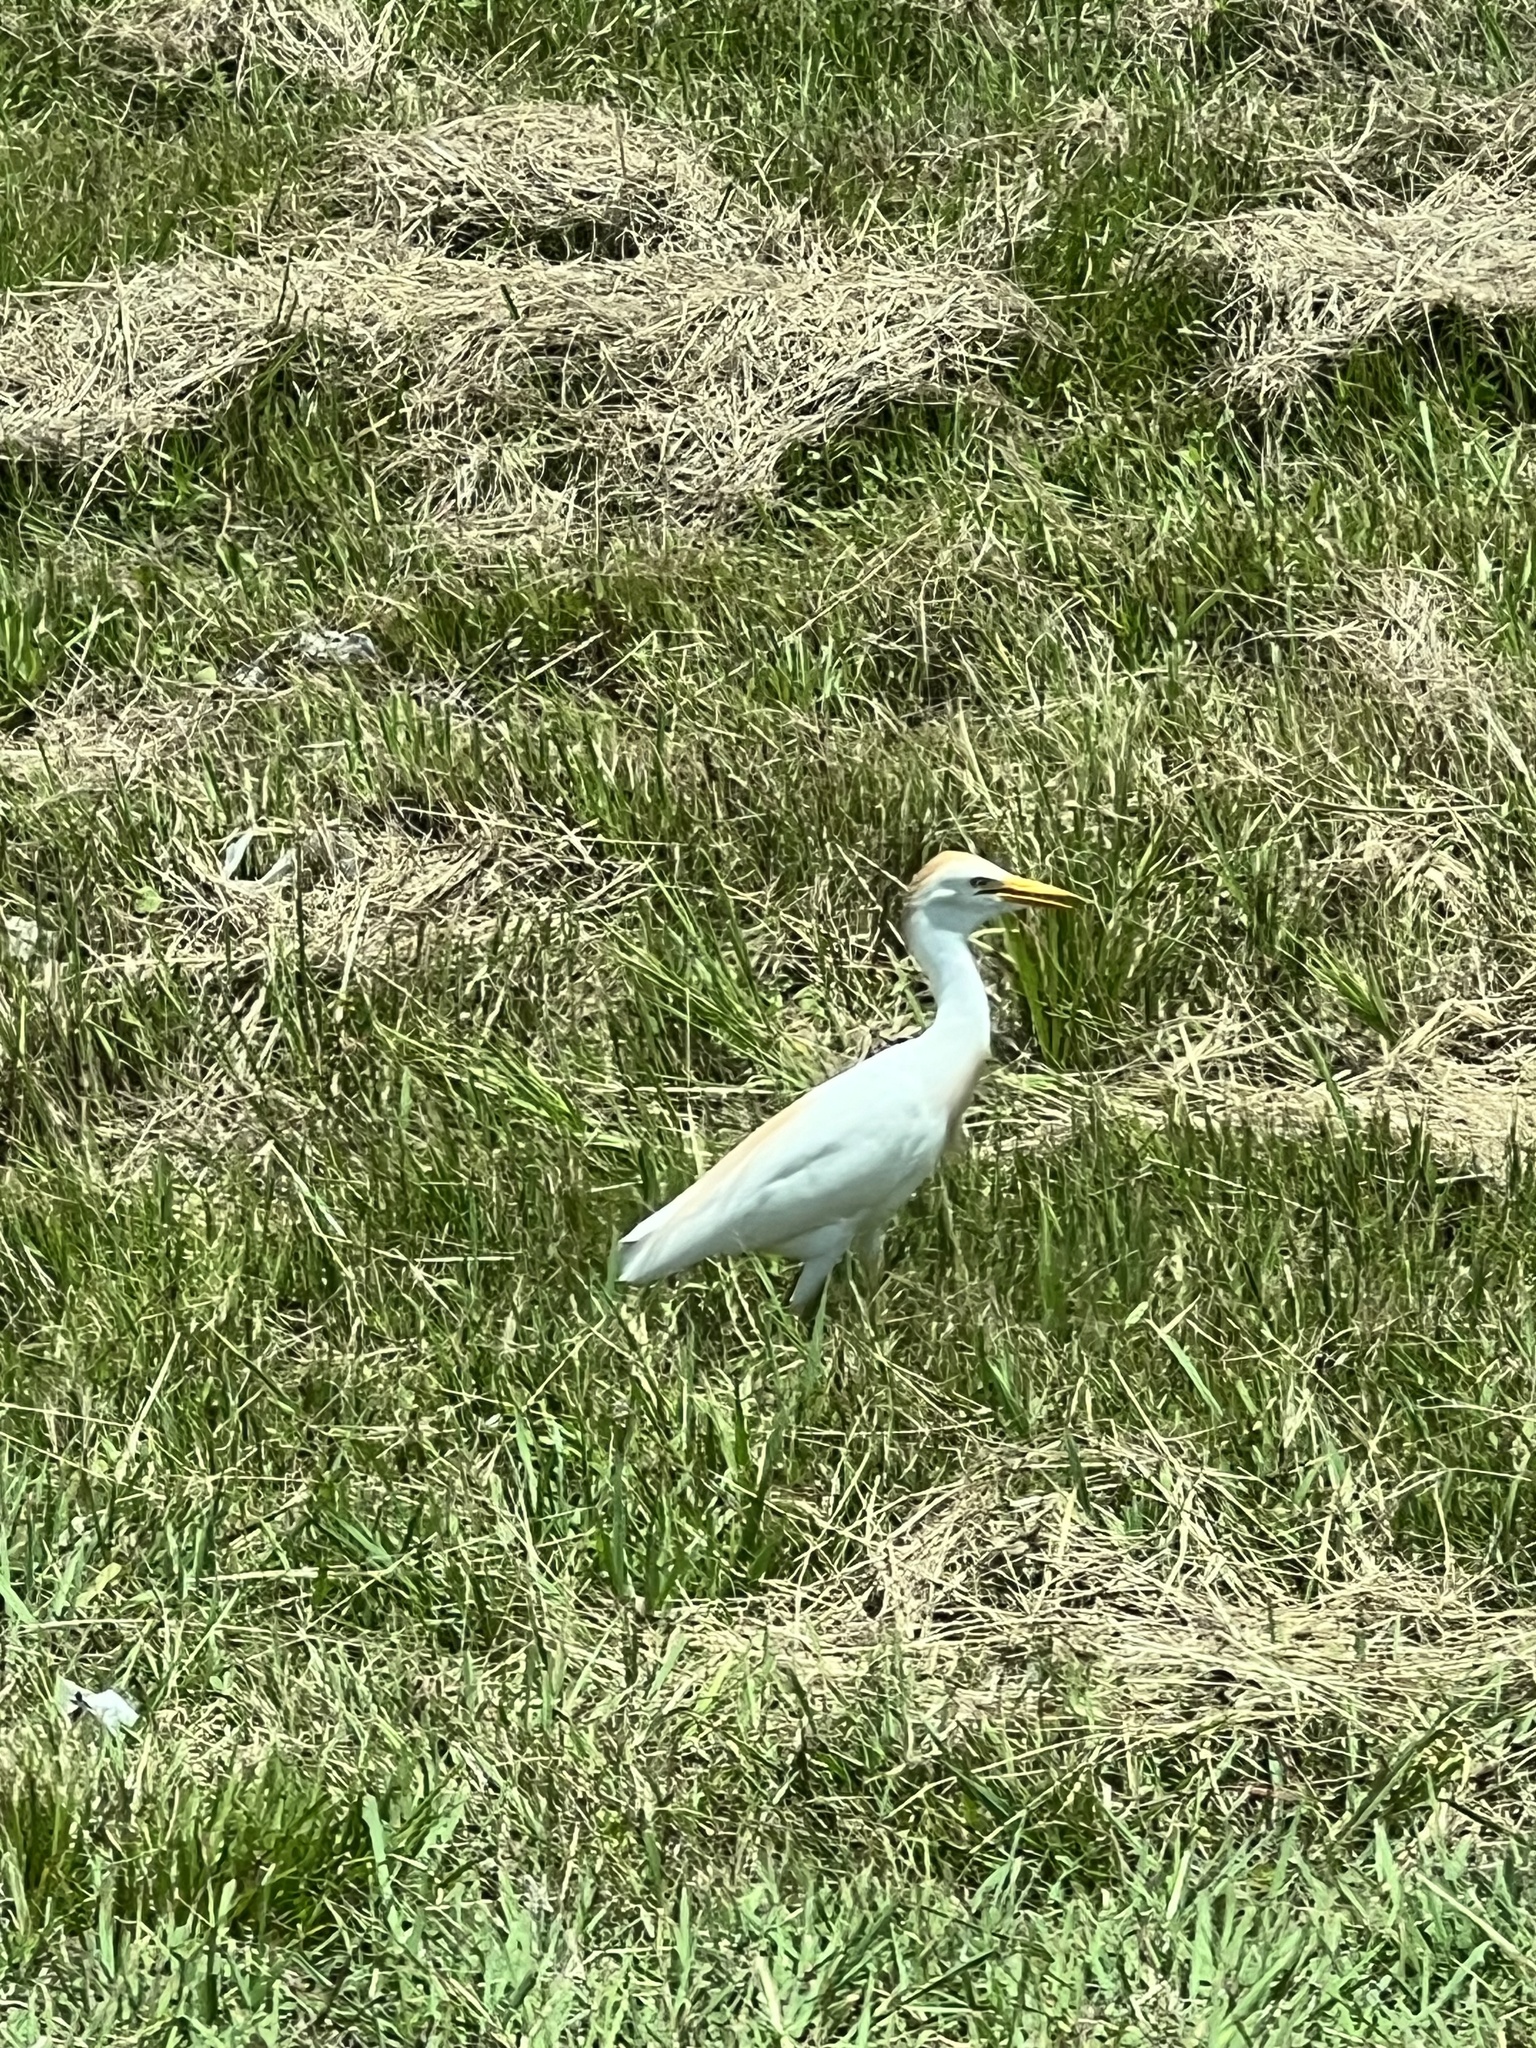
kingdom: Animalia
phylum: Chordata
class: Aves
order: Pelecaniformes
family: Ardeidae
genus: Bubulcus
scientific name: Bubulcus ibis
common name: Cattle egret
